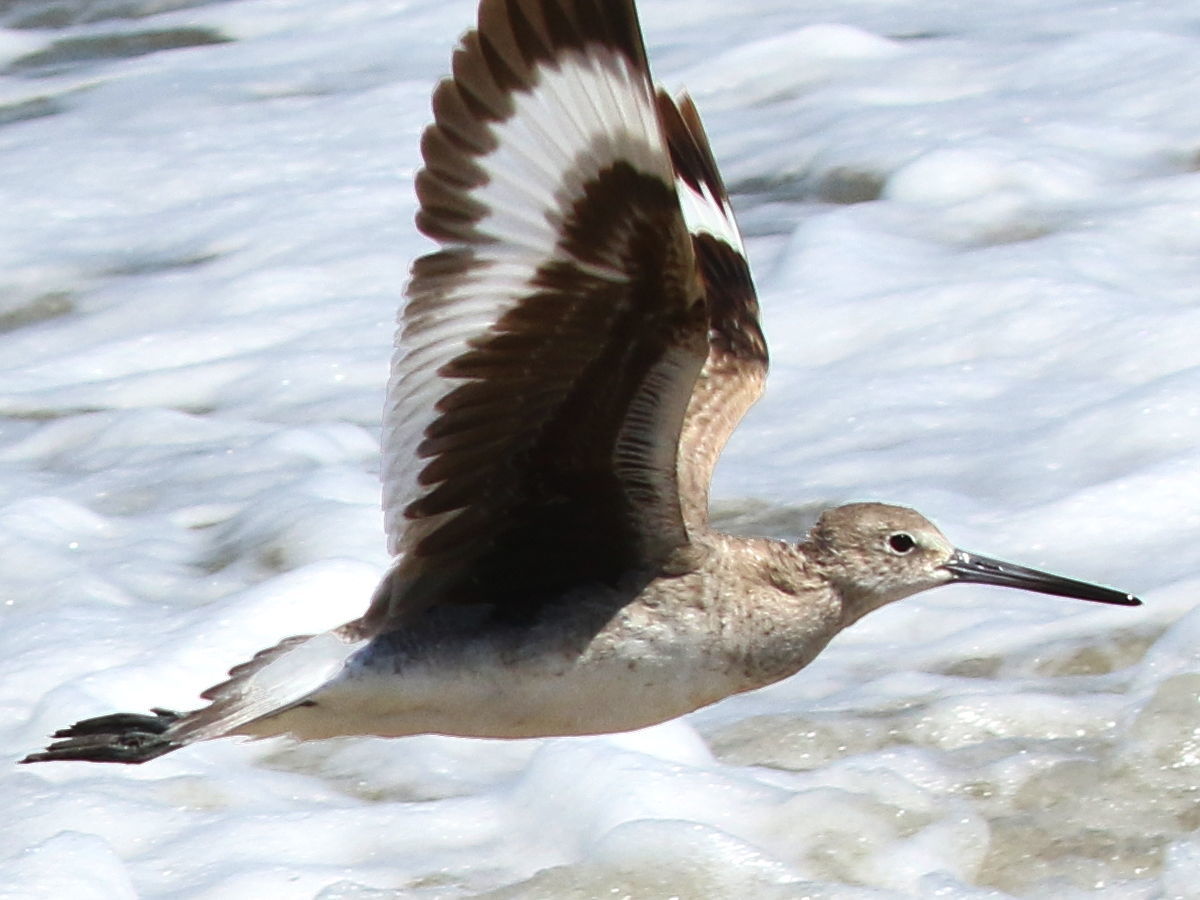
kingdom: Animalia
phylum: Chordata
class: Aves
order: Charadriiformes
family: Scolopacidae
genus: Tringa
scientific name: Tringa semipalmata
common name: Willet
